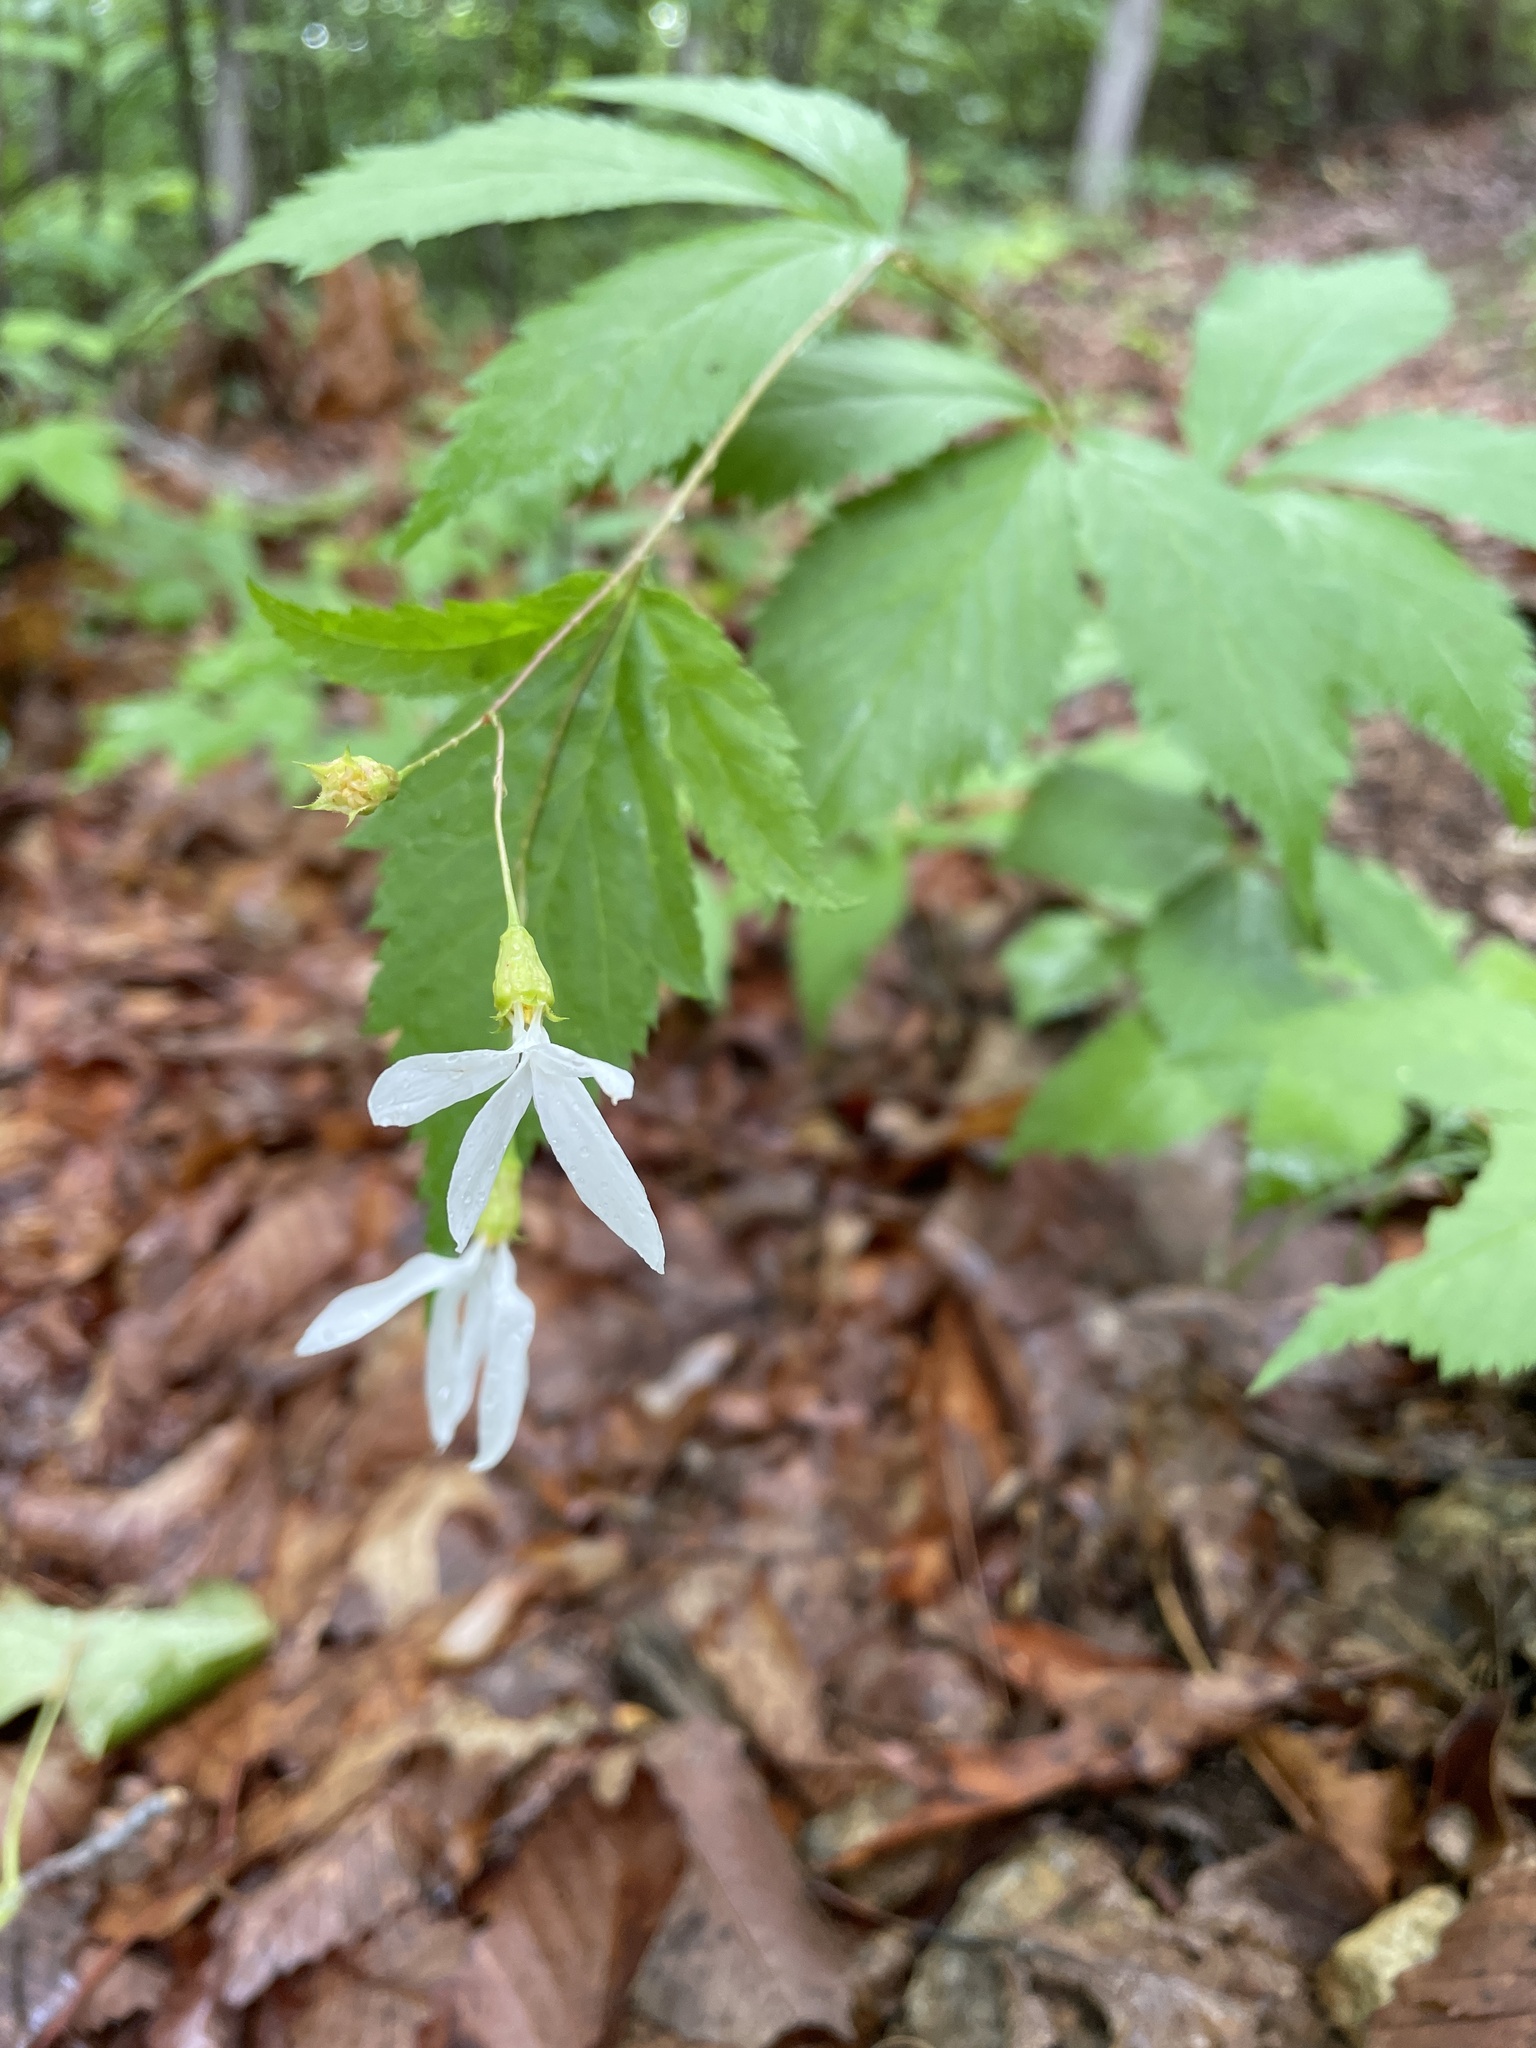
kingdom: Plantae
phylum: Tracheophyta
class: Magnoliopsida
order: Rosales
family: Rosaceae
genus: Gillenia
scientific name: Gillenia trifoliata
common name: Bowman's-root
